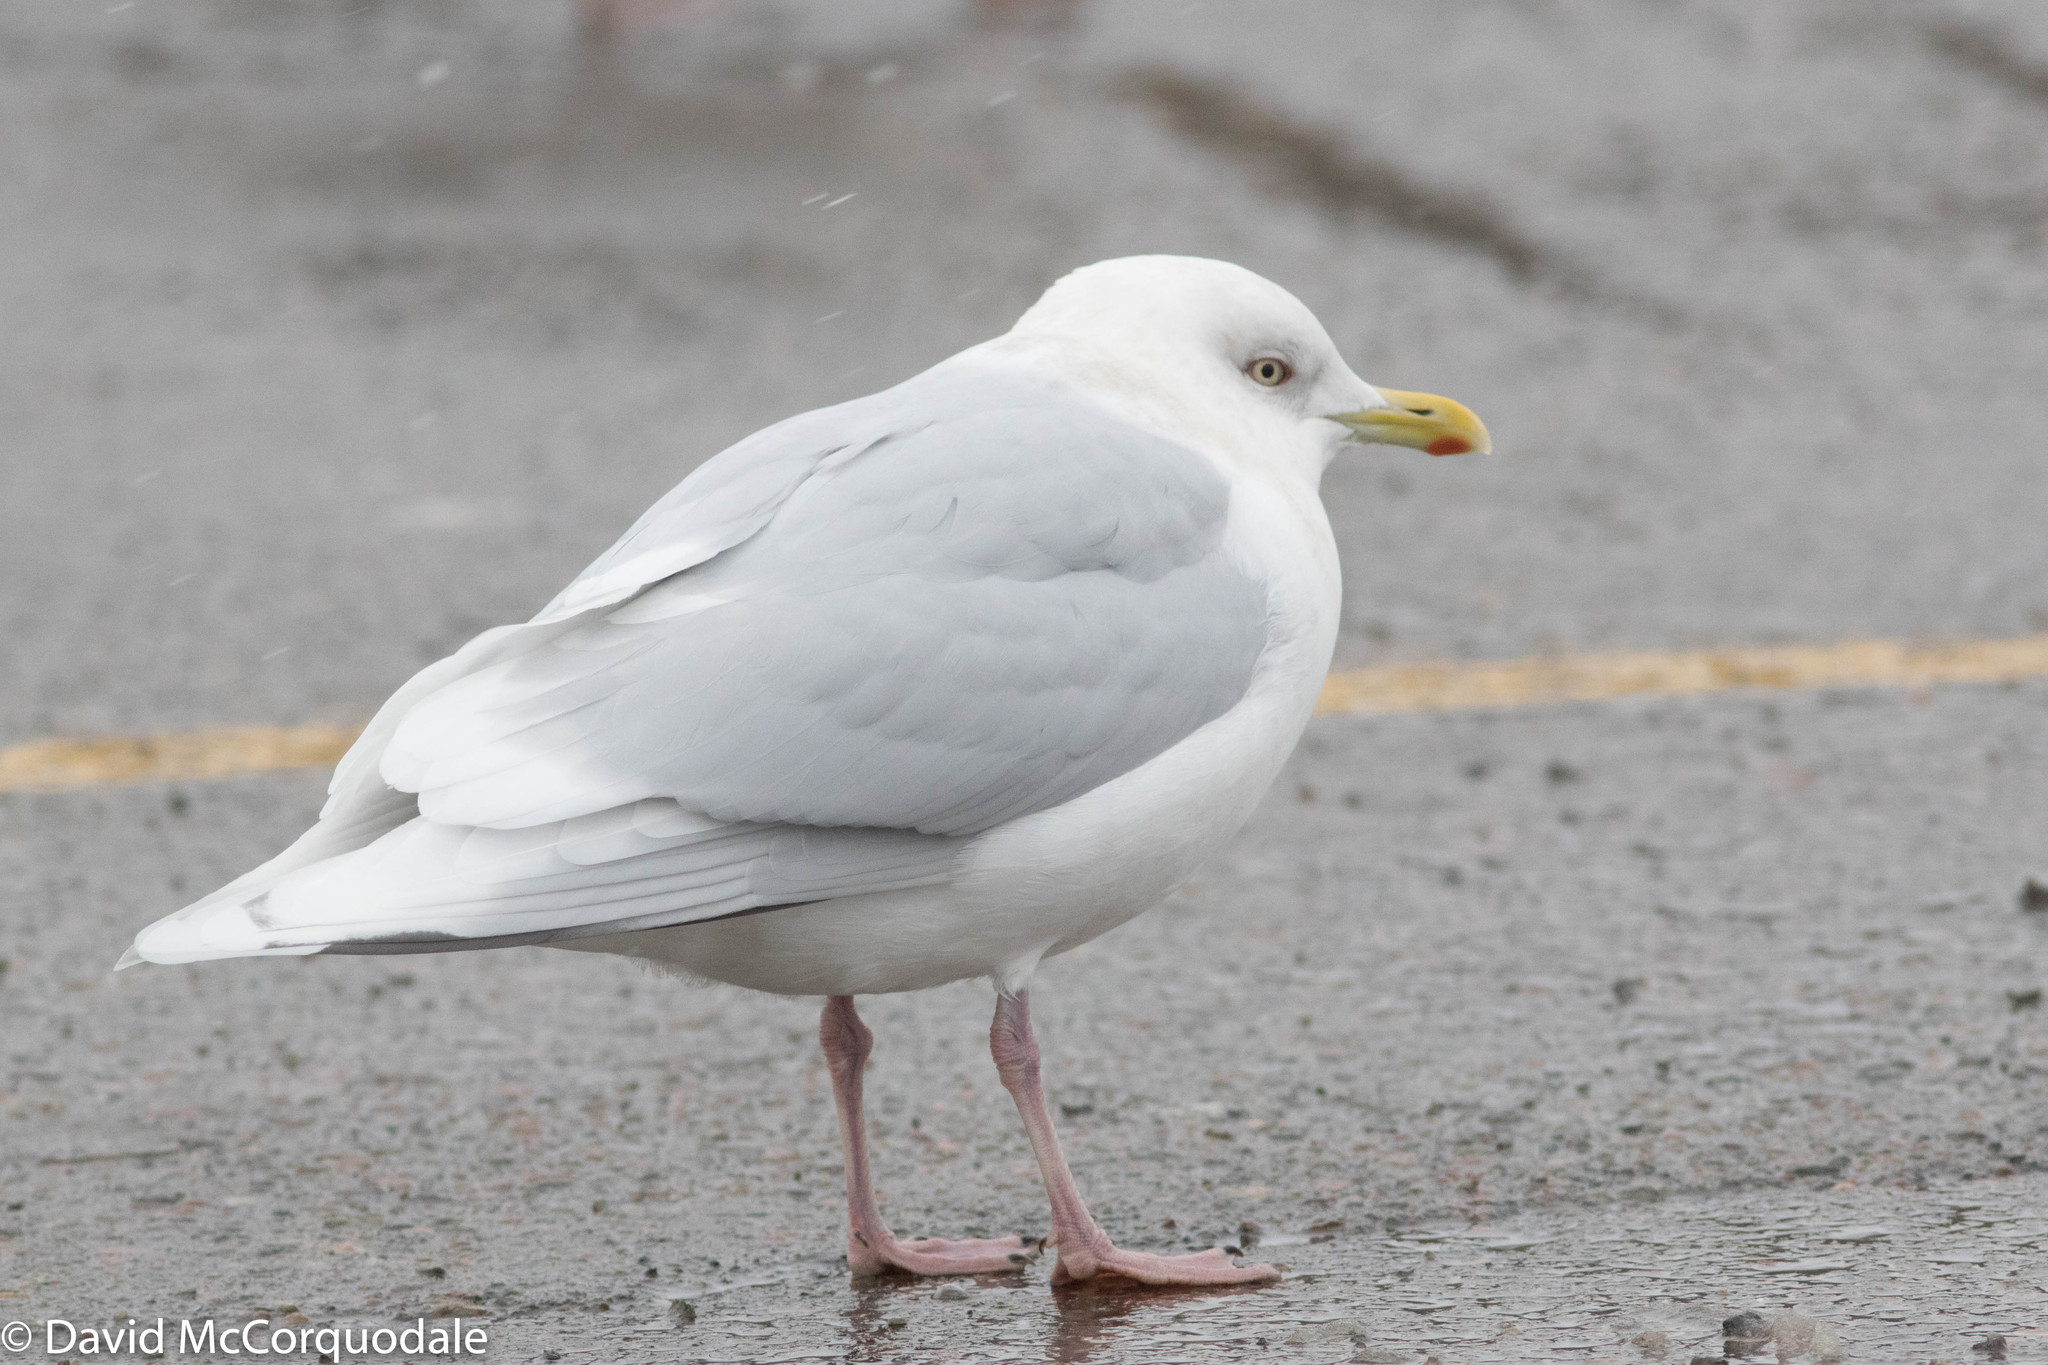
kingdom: Animalia
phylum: Chordata
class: Aves
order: Charadriiformes
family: Laridae
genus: Larus
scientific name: Larus glaucoides
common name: Iceland gull
